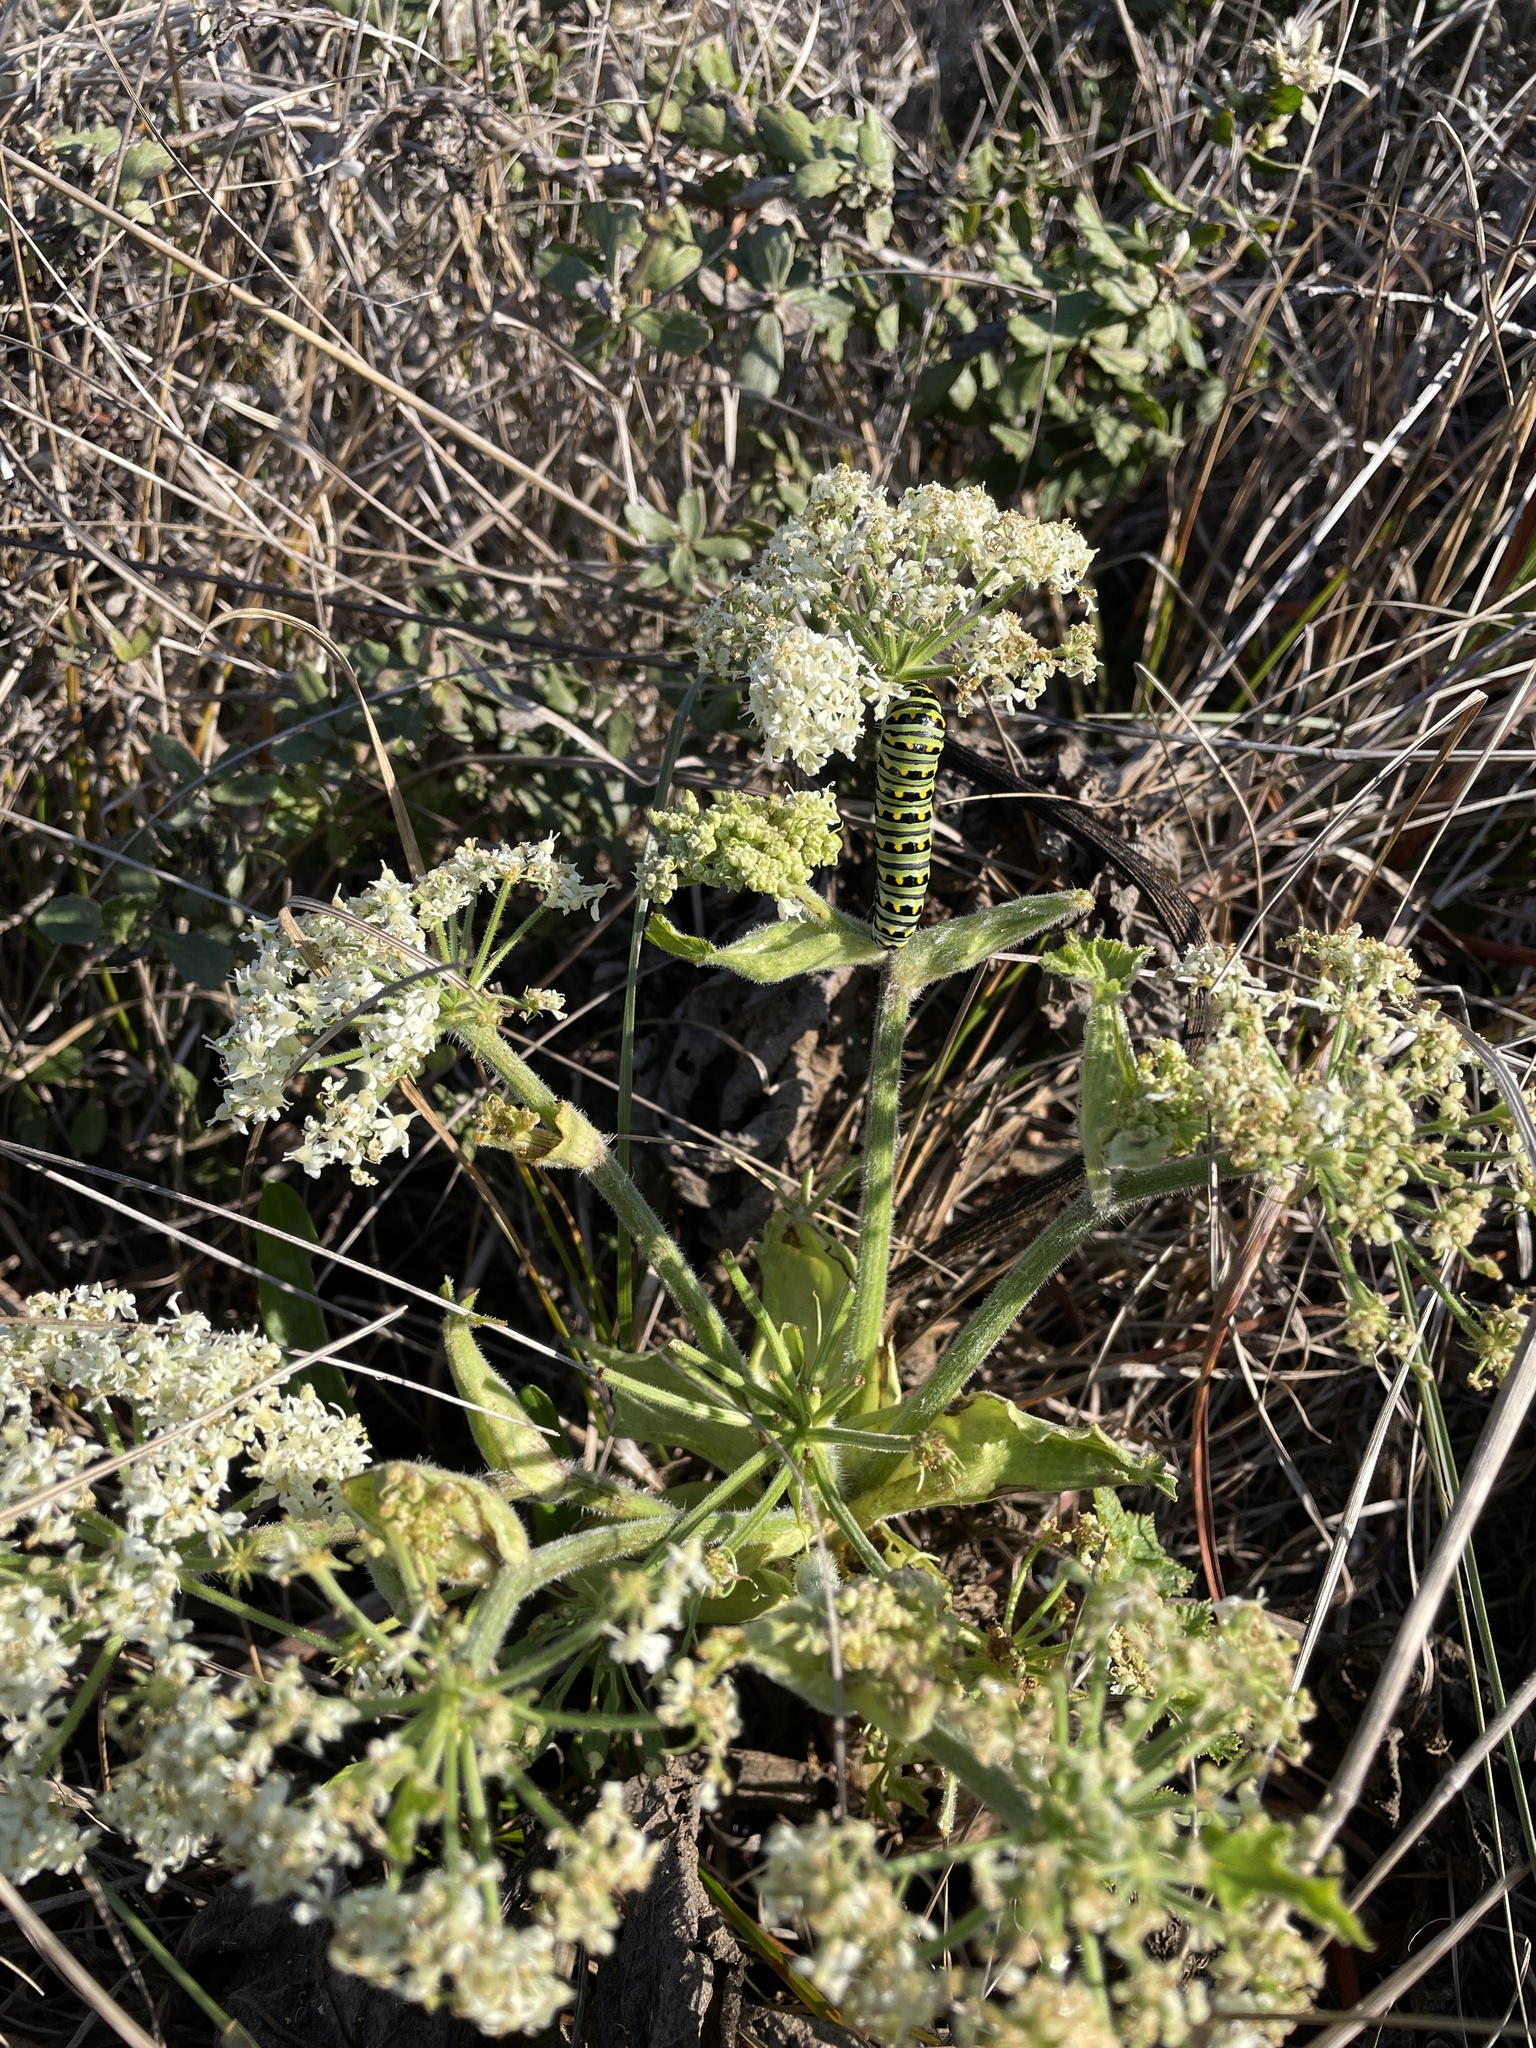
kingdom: Animalia
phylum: Arthropoda
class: Insecta
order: Lepidoptera
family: Papilionidae
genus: Papilio
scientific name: Papilio zelicaon
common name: Anise swallowtail
